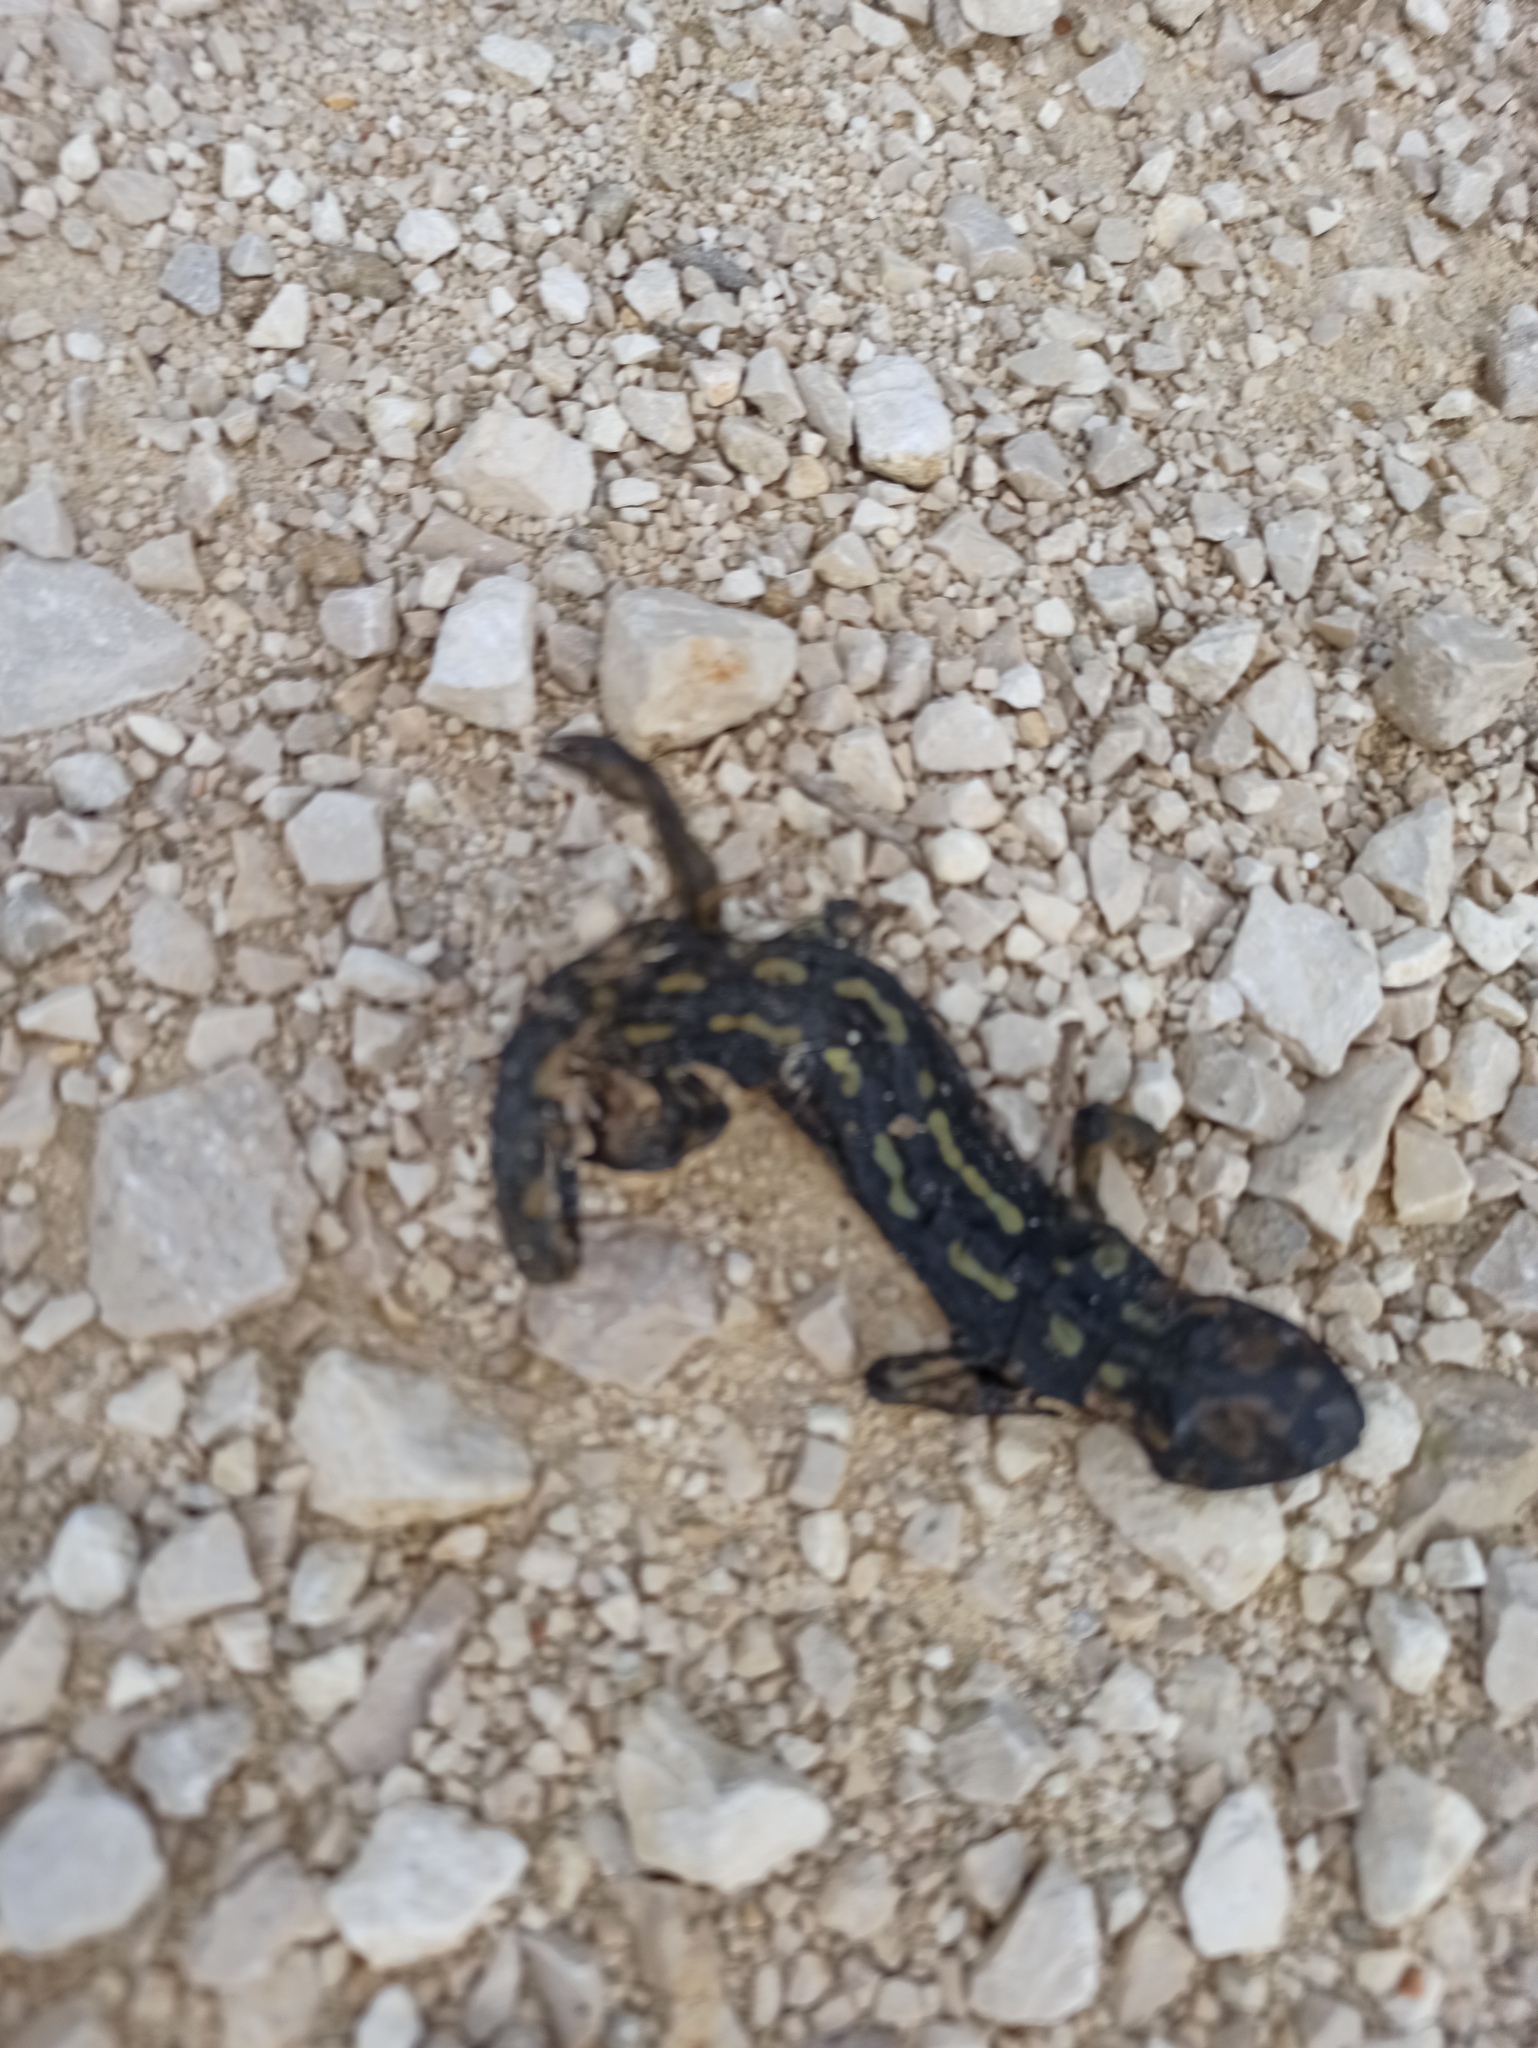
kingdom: Animalia
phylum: Chordata
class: Amphibia
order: Caudata
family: Salamandridae
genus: Salamandra
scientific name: Salamandra salamandra
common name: Fire salamander
